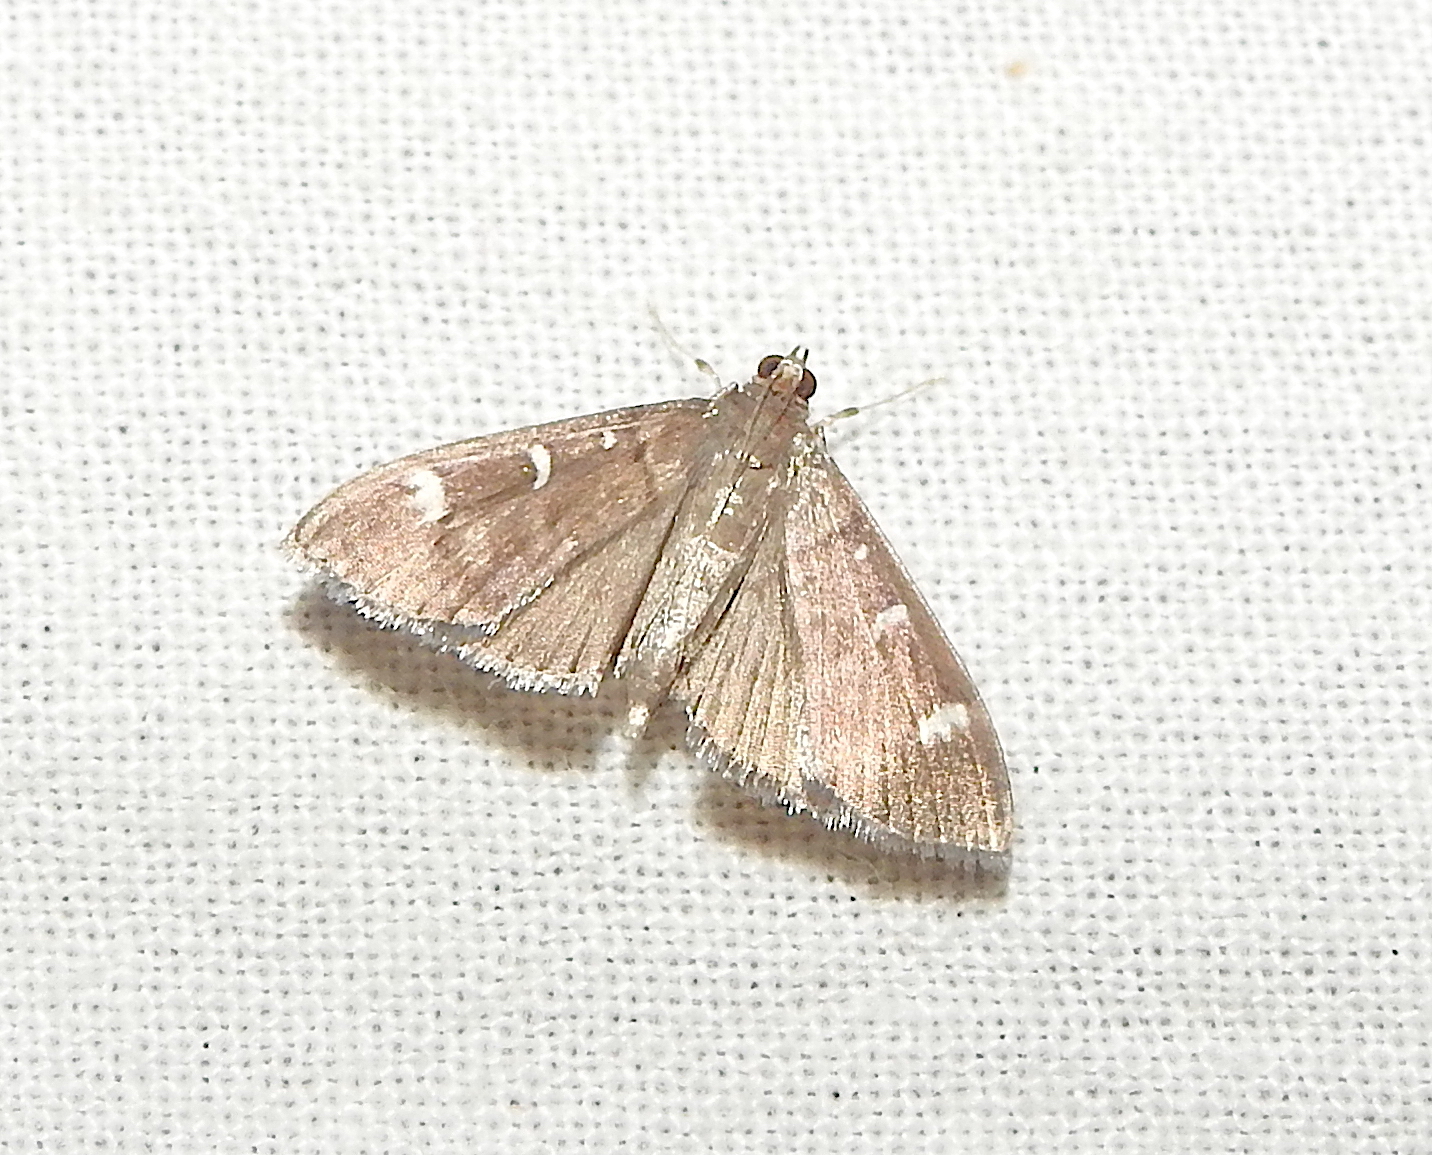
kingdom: Animalia
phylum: Arthropoda
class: Insecta
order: Lepidoptera
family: Crambidae
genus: Samea
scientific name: Samea castoralis
